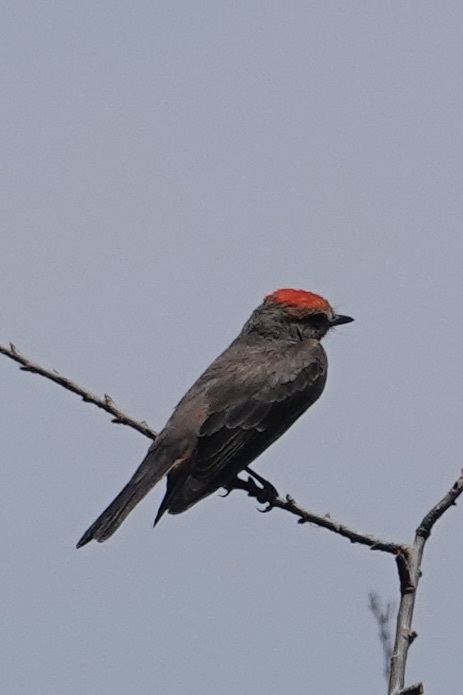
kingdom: Animalia
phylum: Chordata
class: Aves
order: Passeriformes
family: Tyrannidae
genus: Pyrocephalus
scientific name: Pyrocephalus rubinus
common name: Vermilion flycatcher
